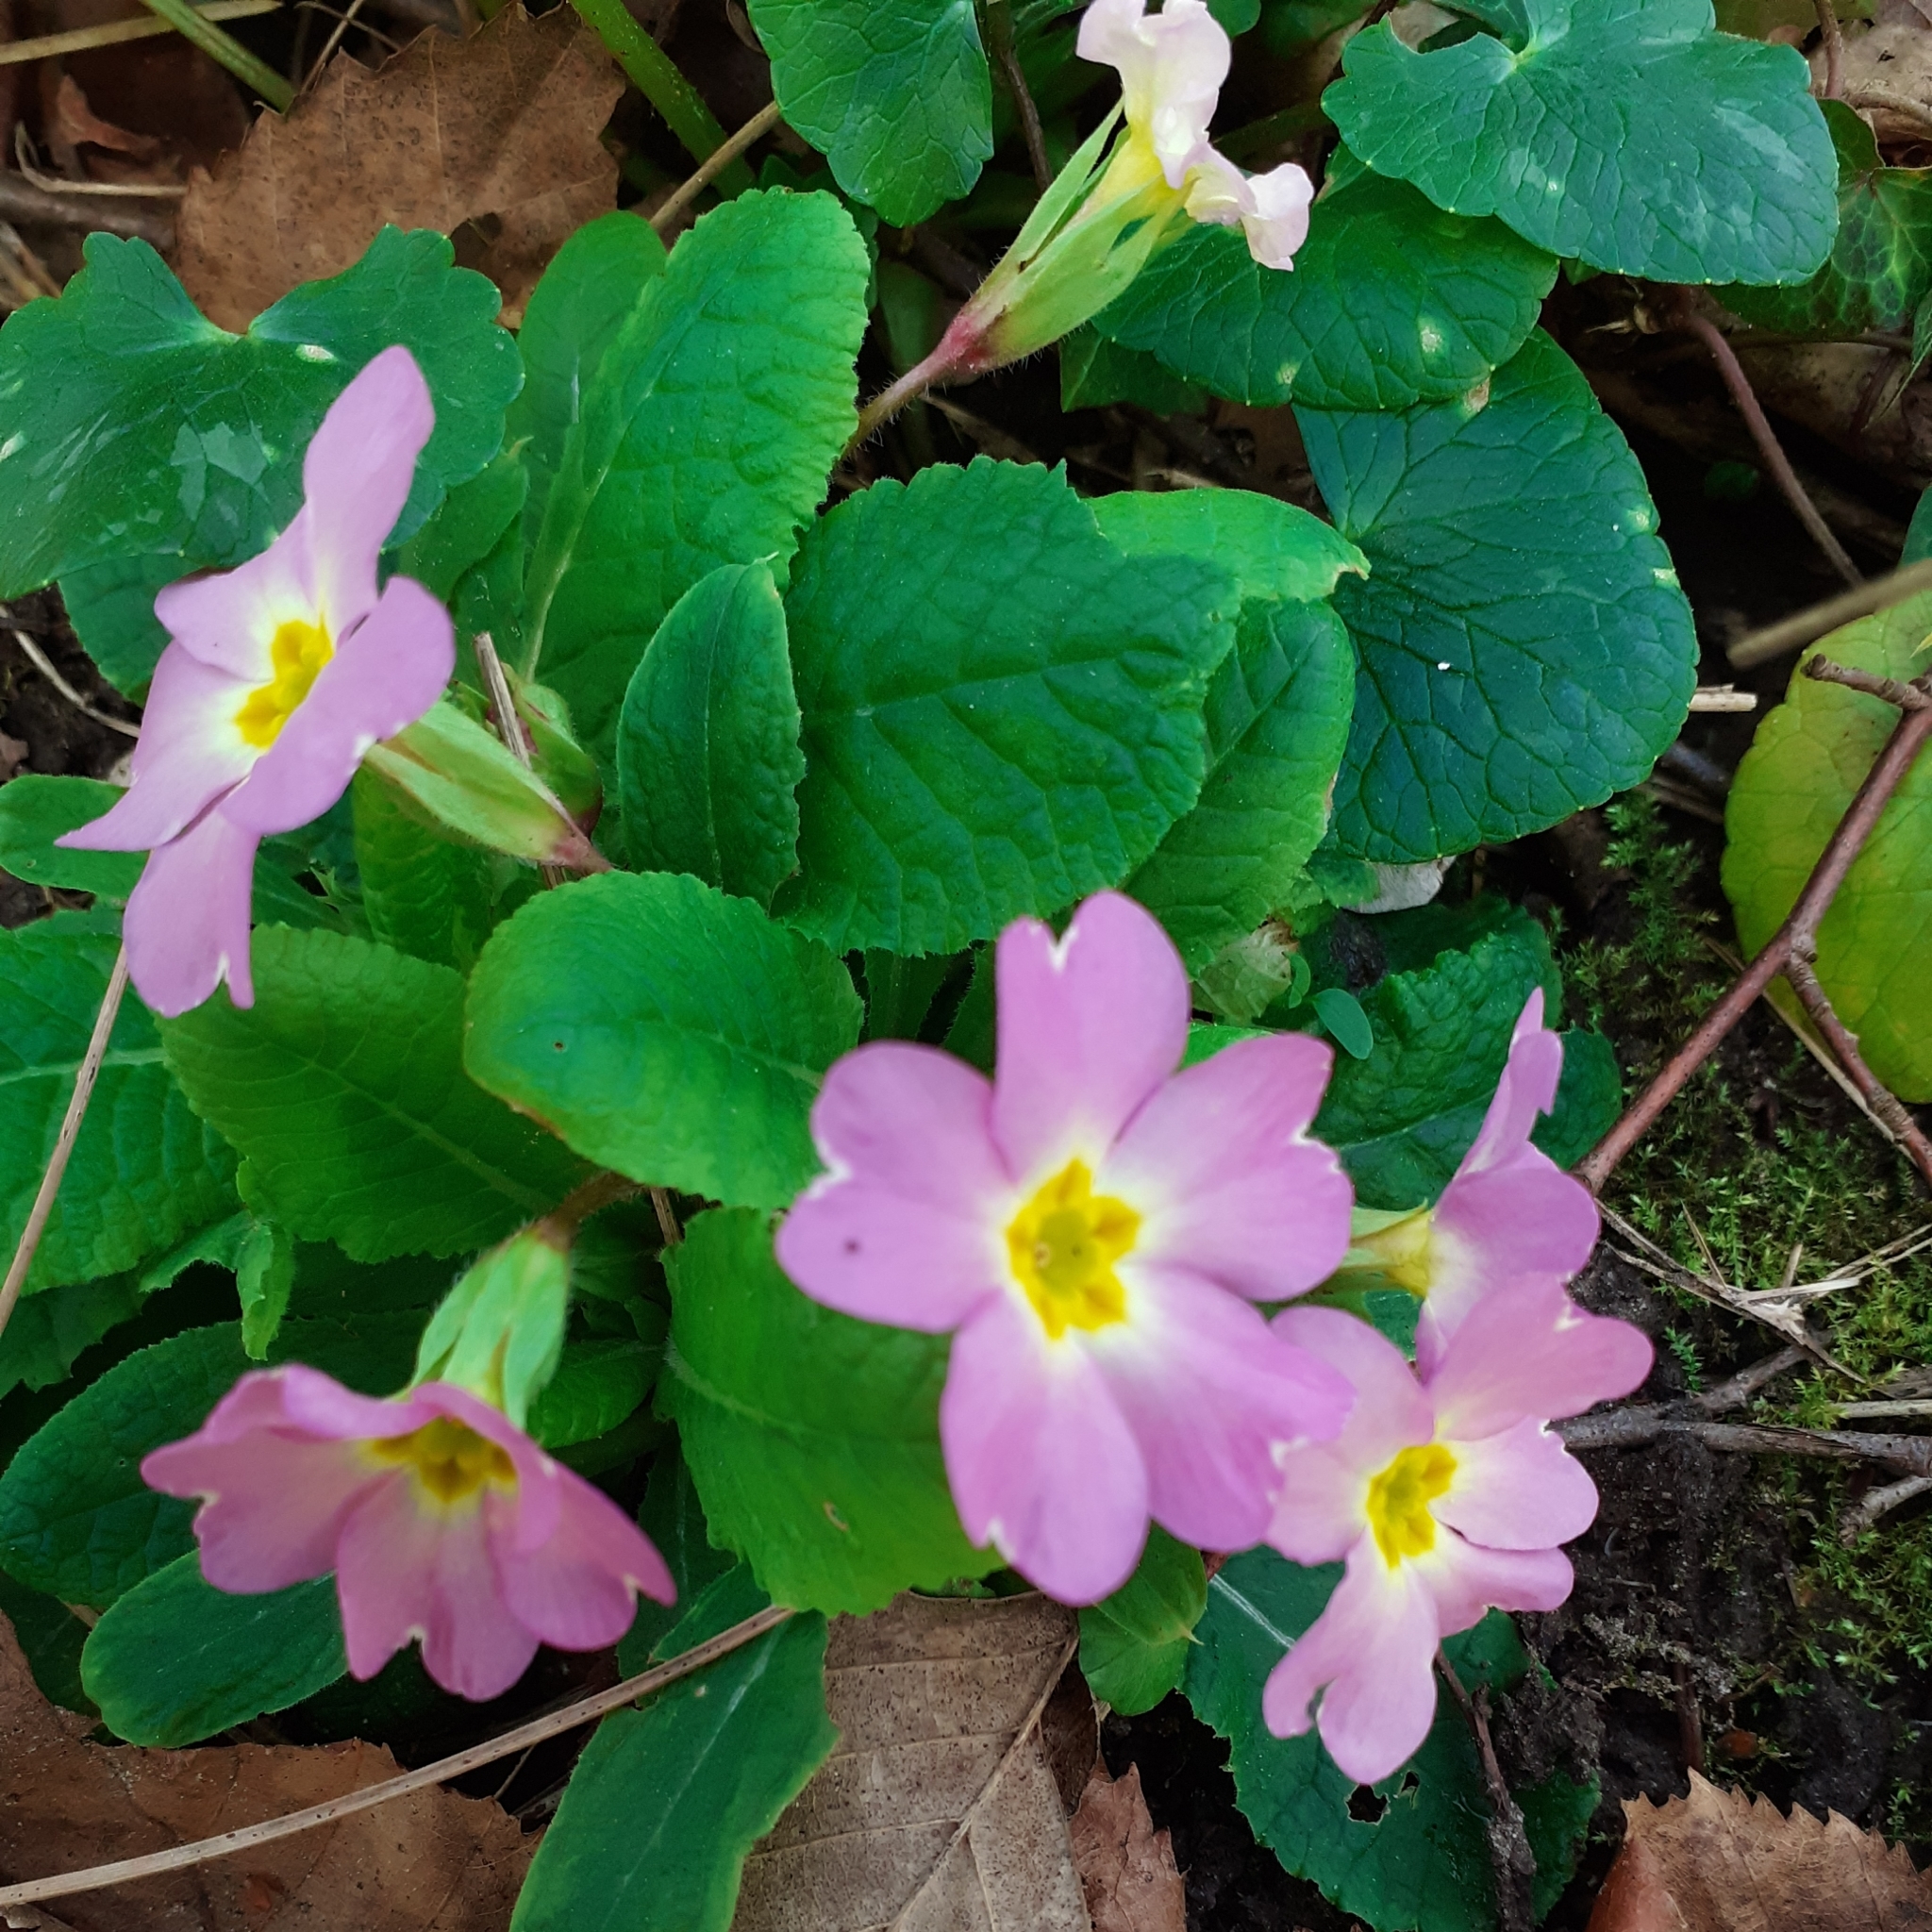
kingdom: Plantae
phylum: Tracheophyta
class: Magnoliopsida
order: Ericales
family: Primulaceae
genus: Primula
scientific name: Primula vulgaris
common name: Primrose
